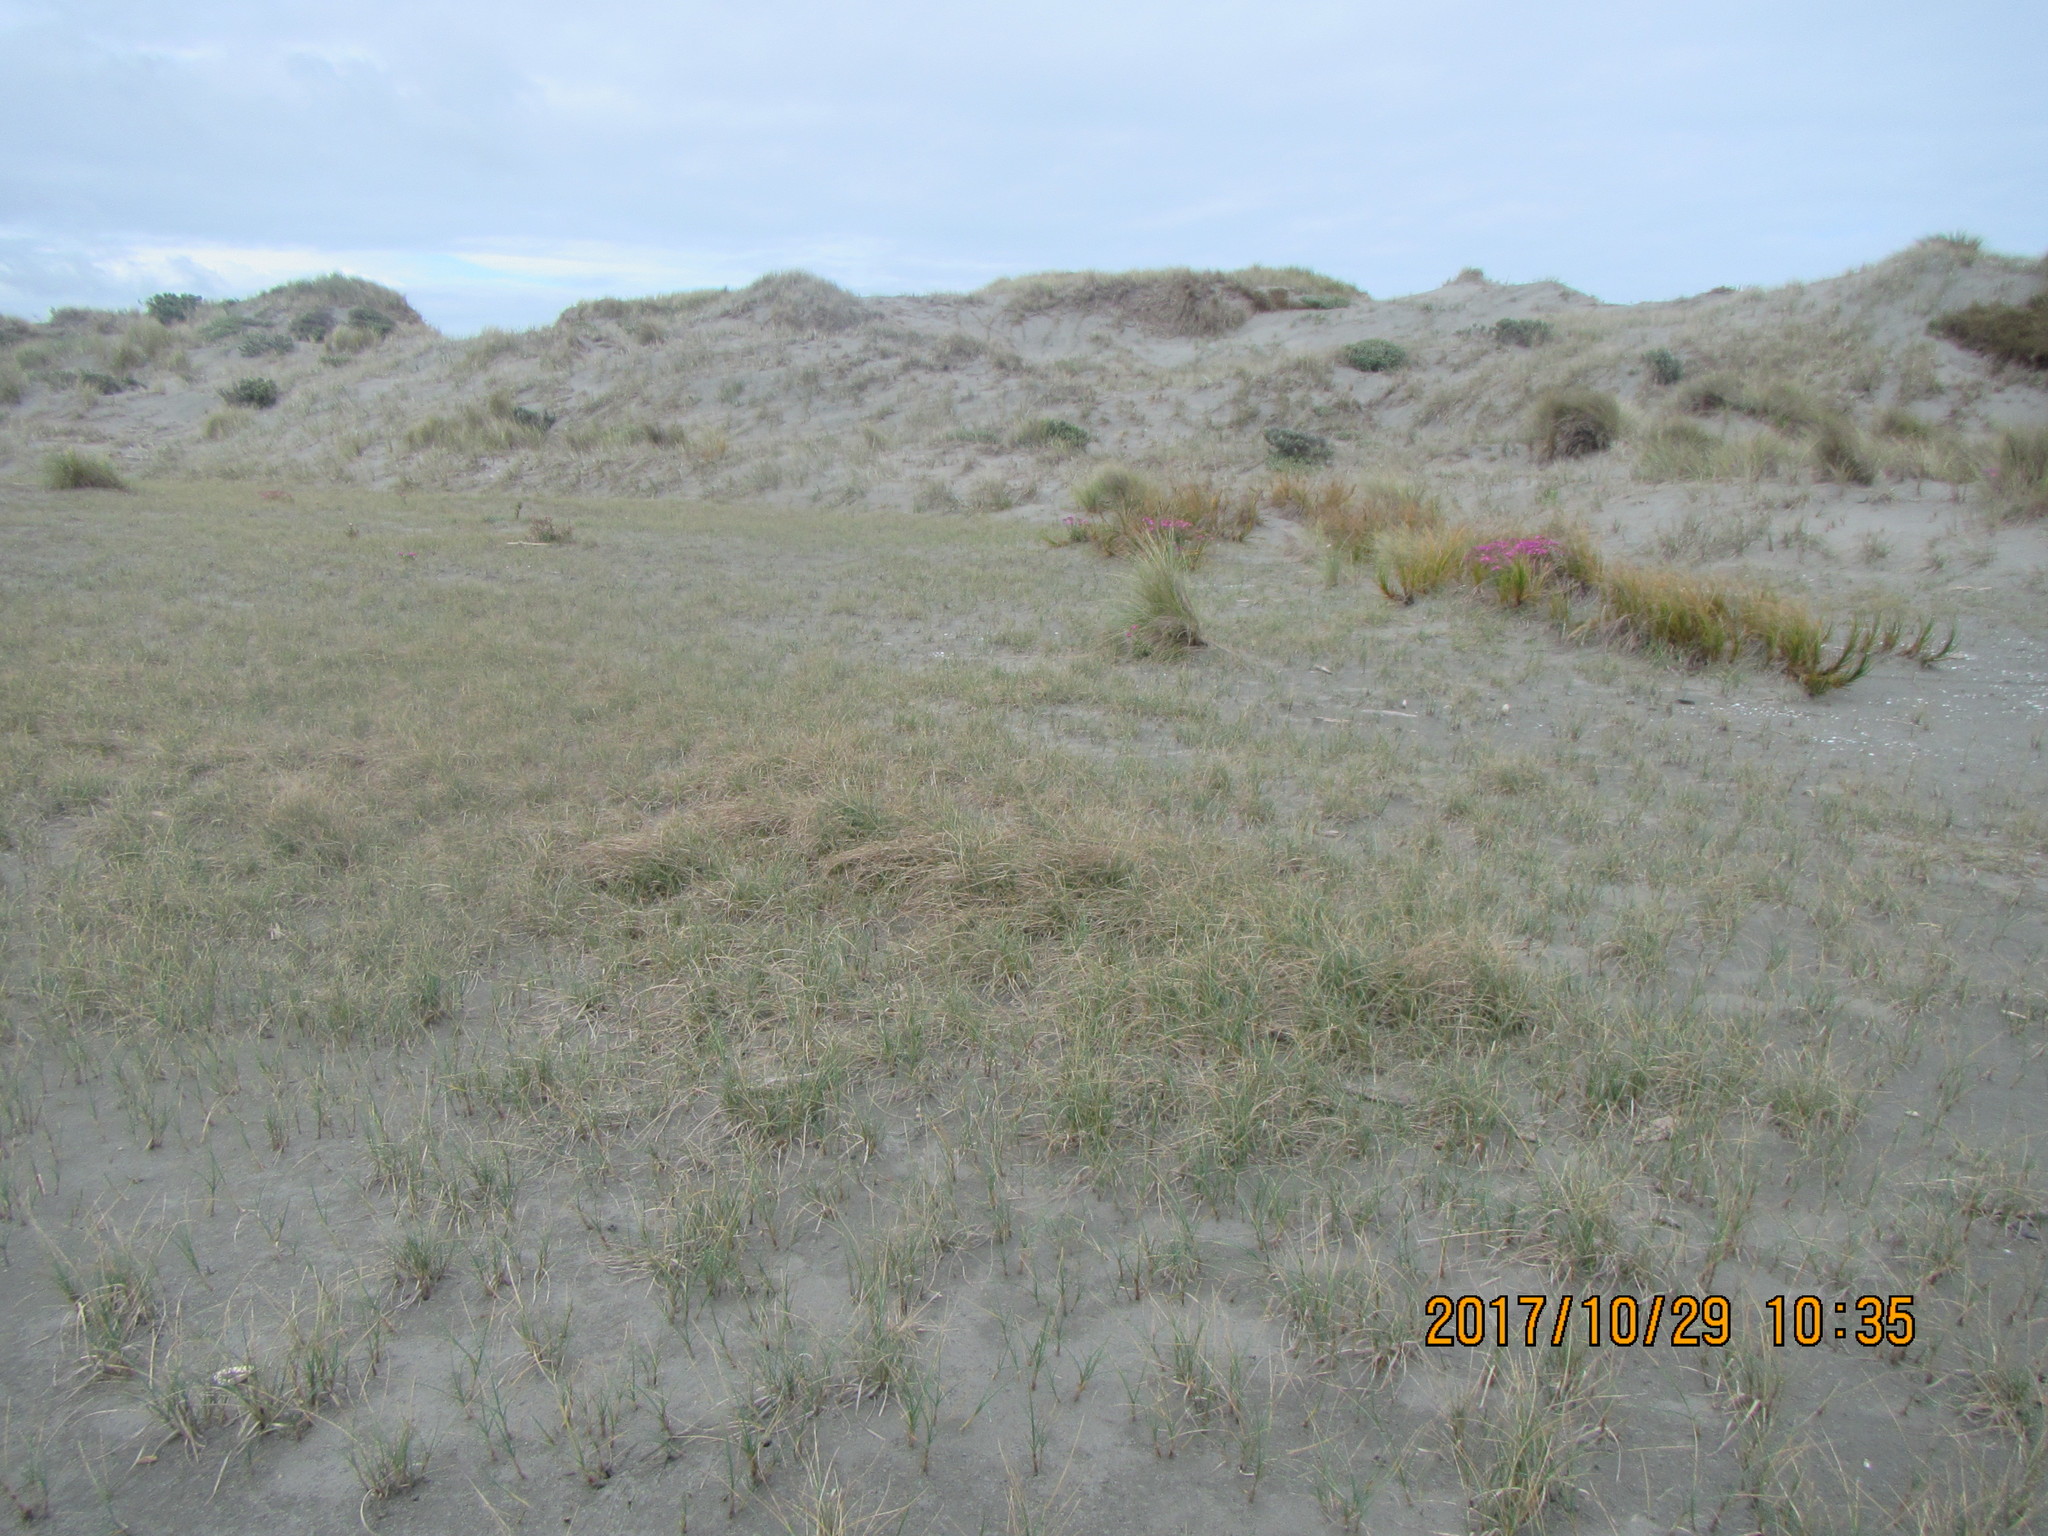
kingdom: Plantae
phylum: Tracheophyta
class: Liliopsida
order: Poales
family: Cyperaceae
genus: Carex
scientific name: Carex pumila
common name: Dwarf sedge
